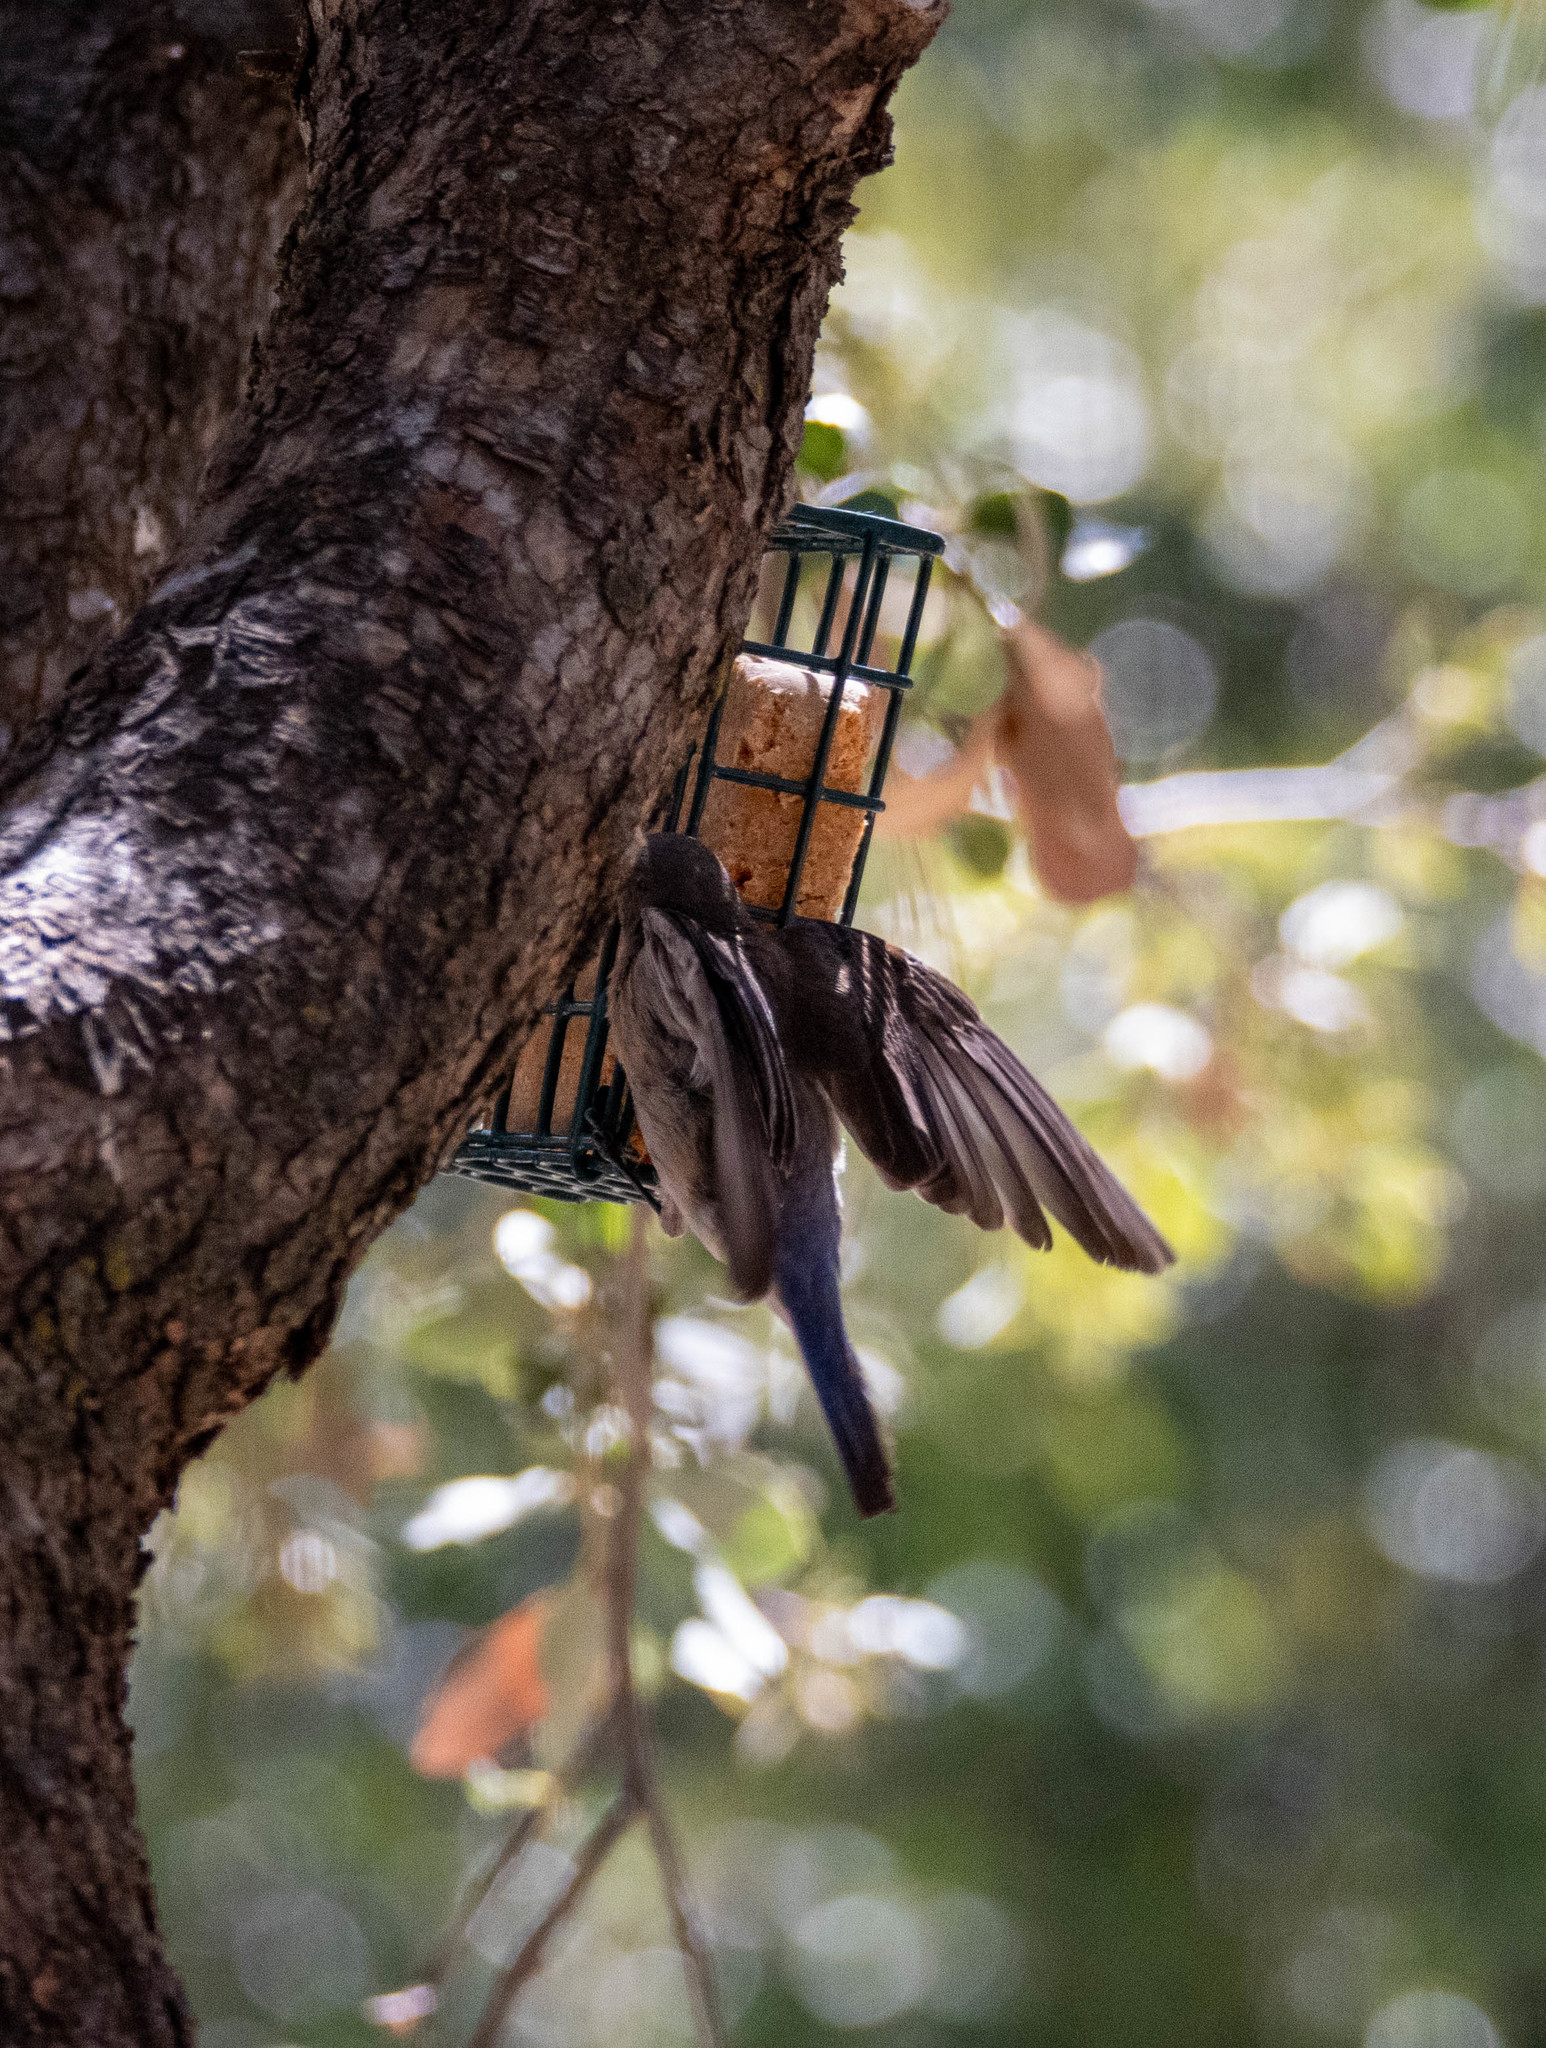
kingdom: Animalia
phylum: Chordata
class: Aves
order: Passeriformes
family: Turdidae
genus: Sialia
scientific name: Sialia mexicana
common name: Western bluebird
